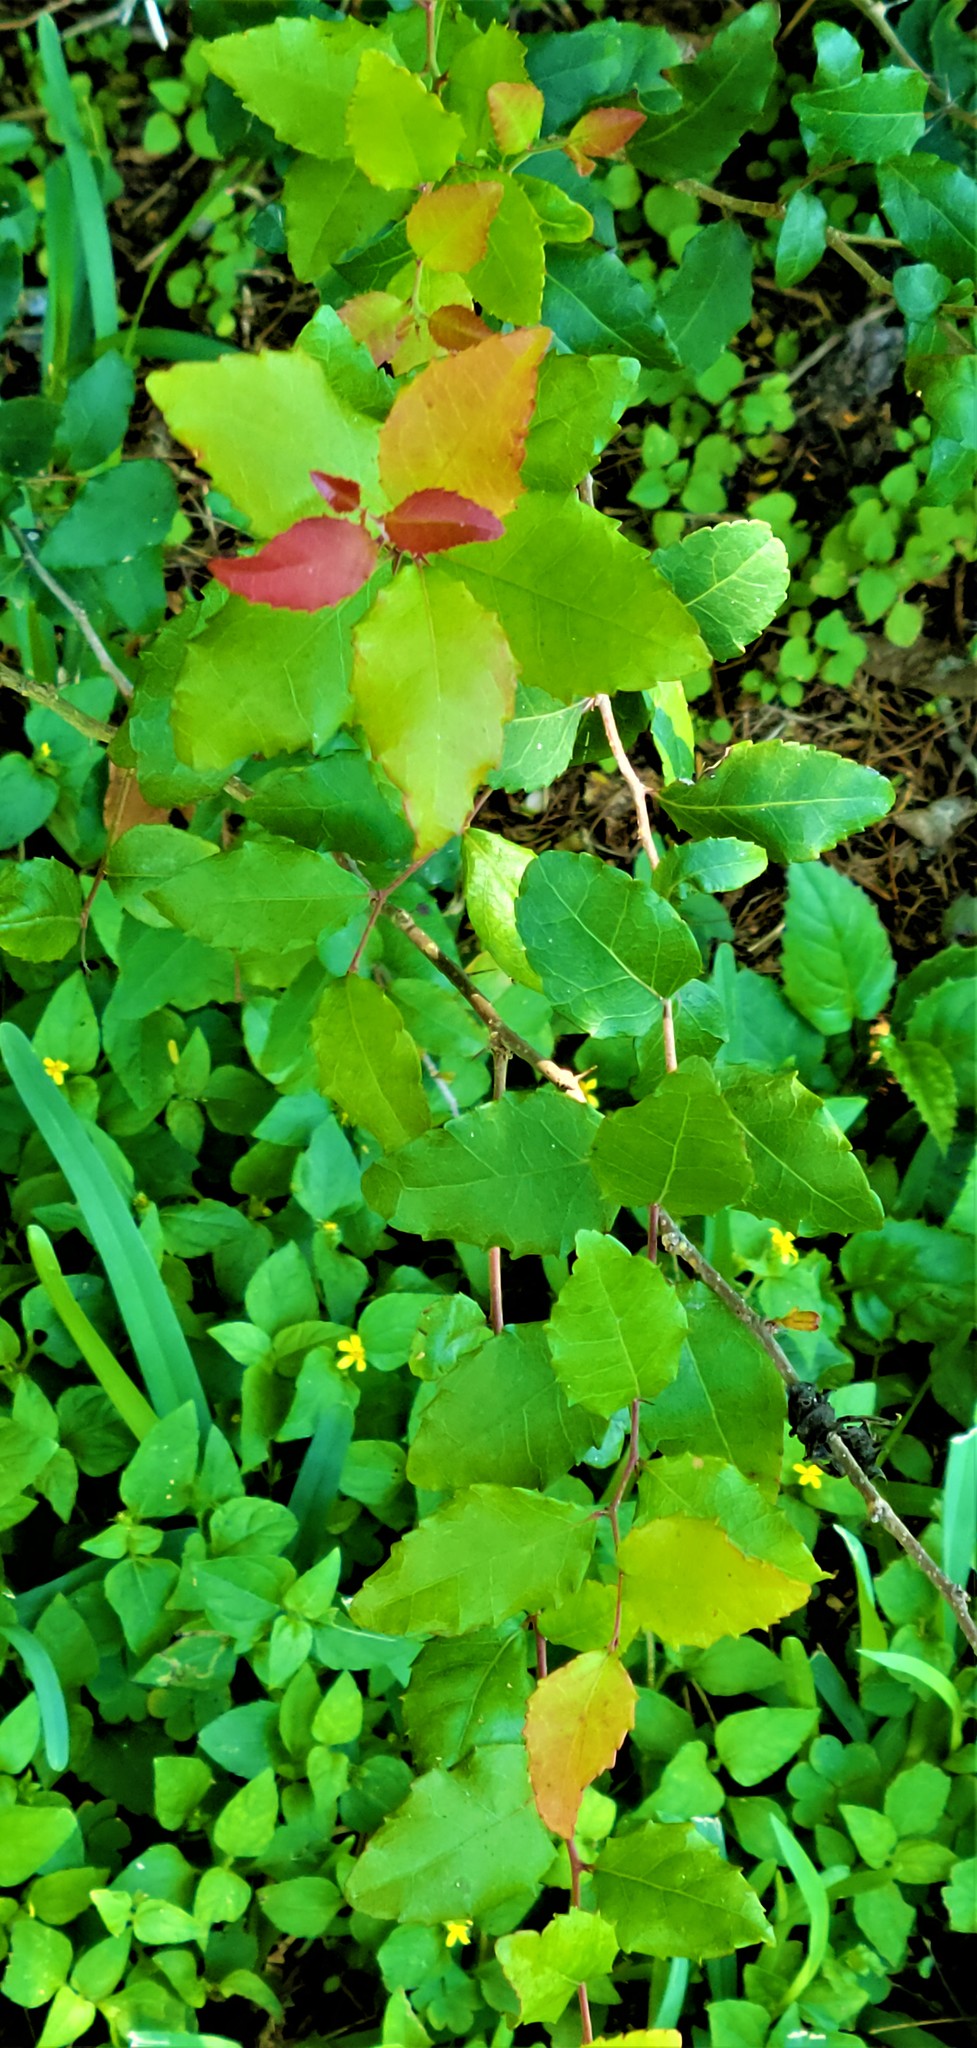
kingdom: Plantae
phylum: Tracheophyta
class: Magnoliopsida
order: Malpighiales
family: Salicaceae
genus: Xylosma
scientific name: Xylosma flexuosa
